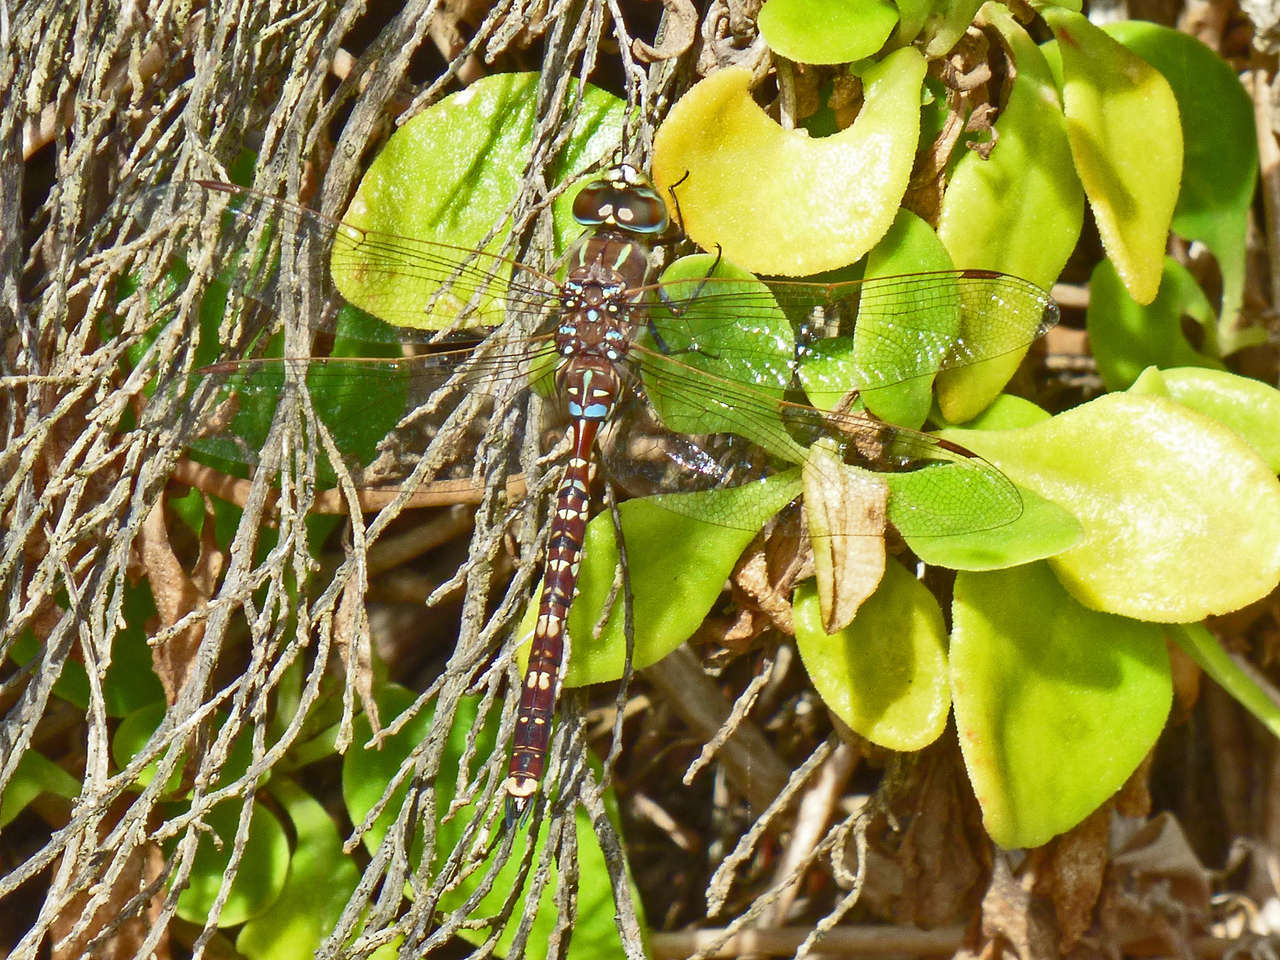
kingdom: Animalia
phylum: Arthropoda
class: Insecta
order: Odonata
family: Aeshnidae
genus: Aeshna
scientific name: Aeshna brevistyla
